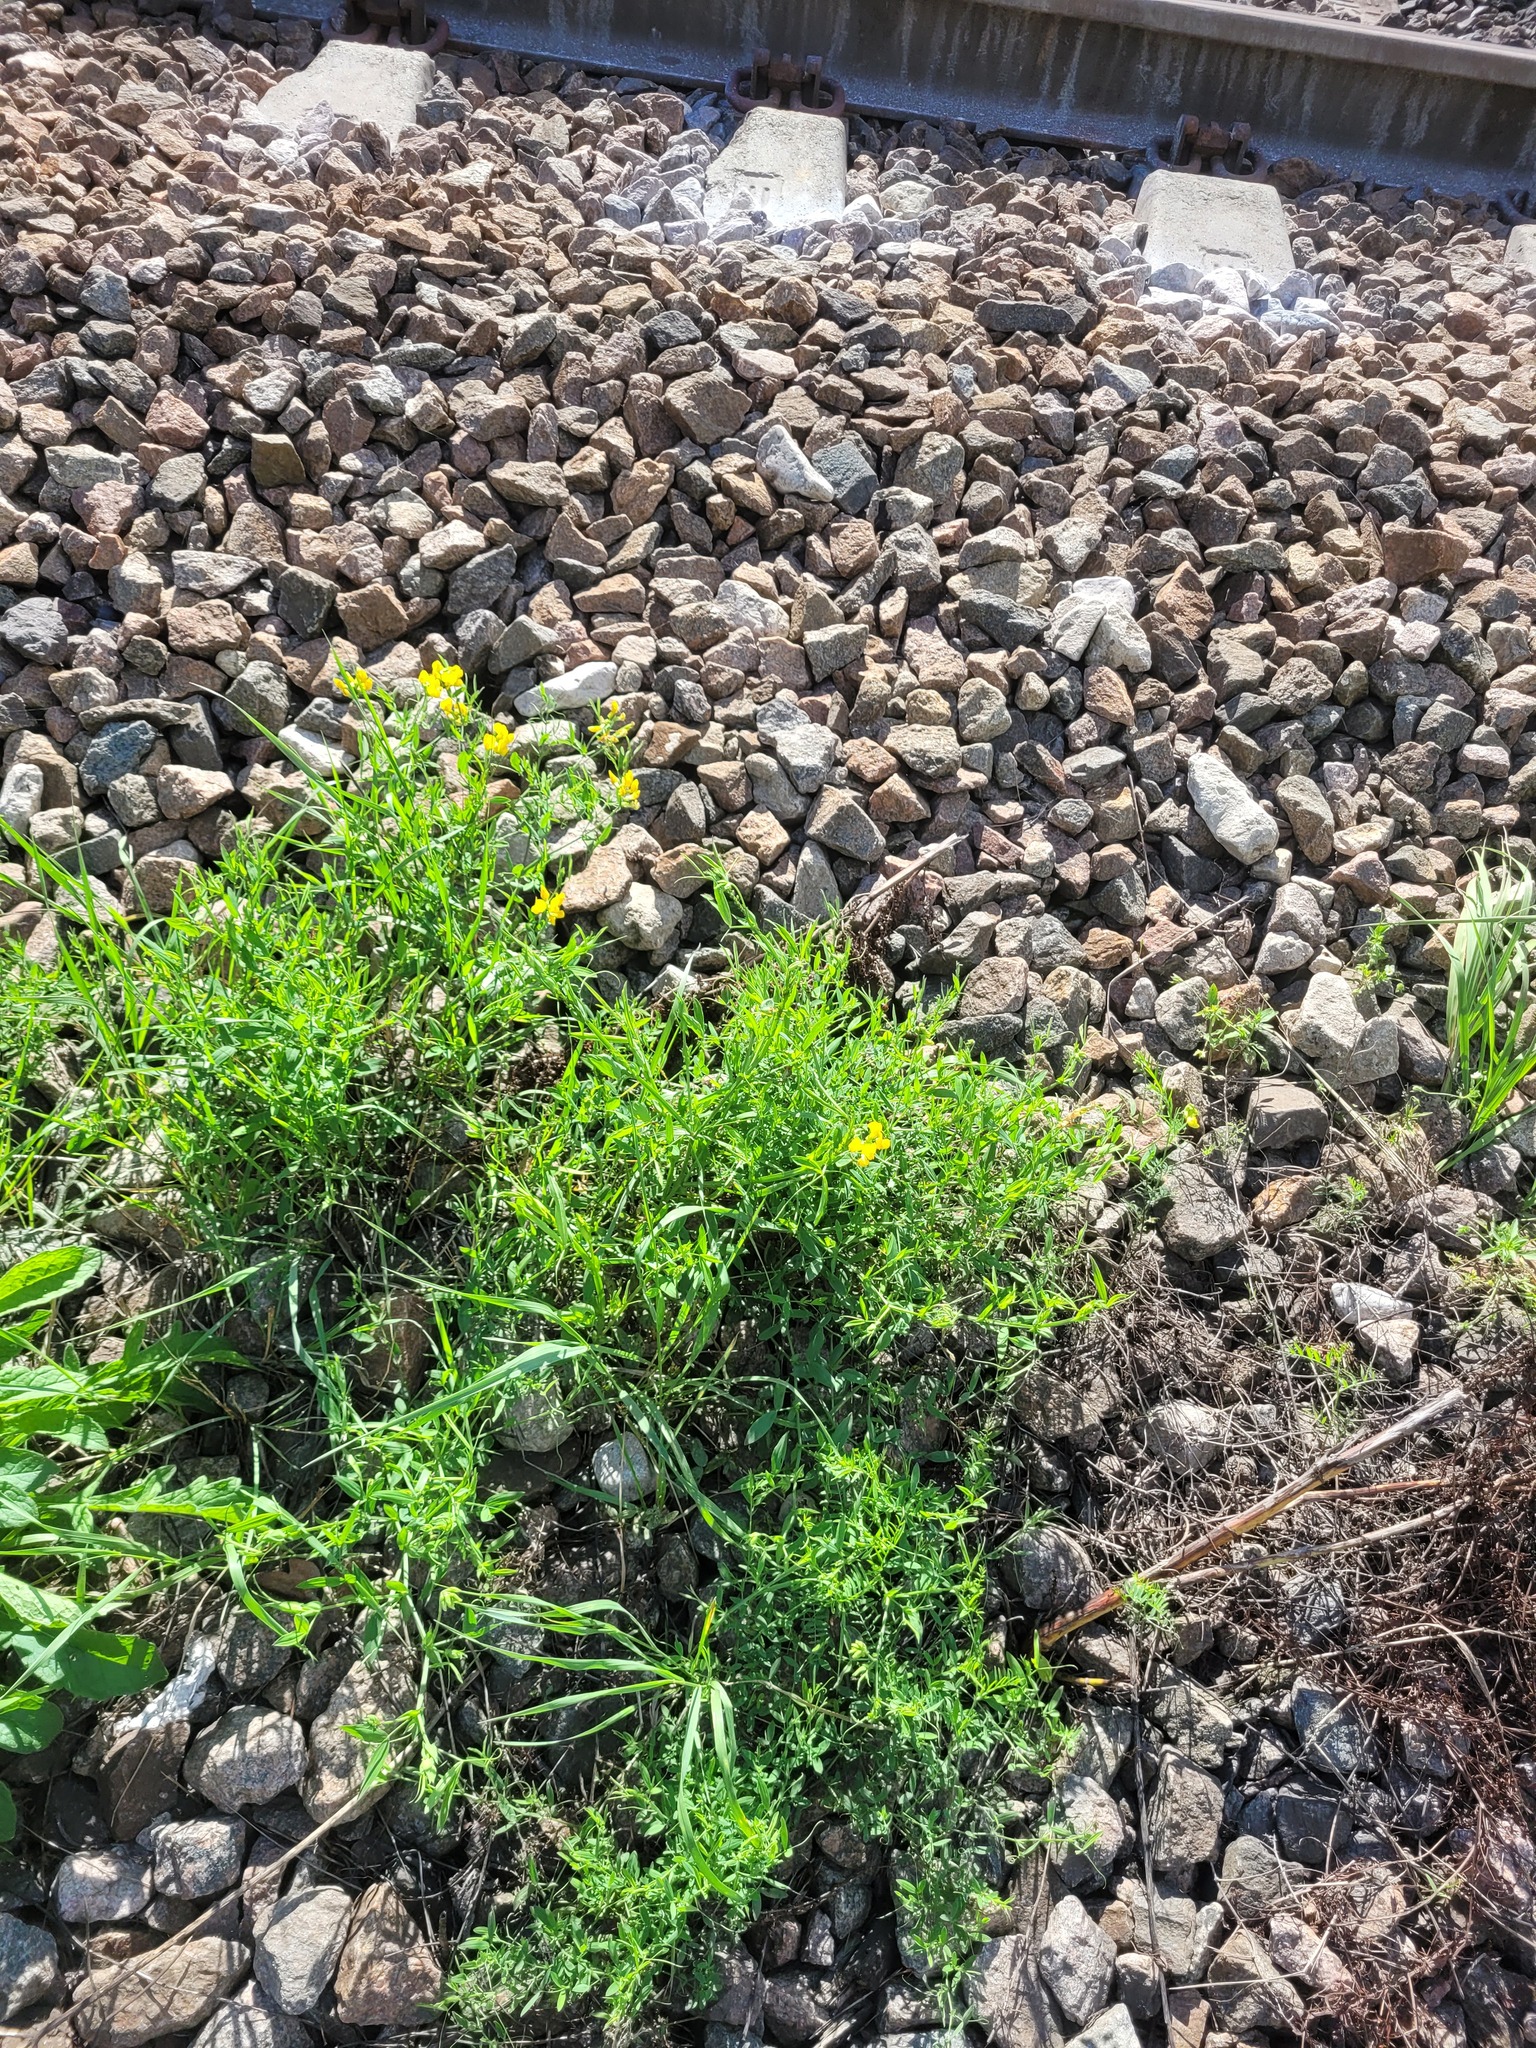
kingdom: Plantae
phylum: Tracheophyta
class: Magnoliopsida
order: Fabales
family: Fabaceae
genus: Lathyrus
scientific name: Lathyrus pratensis
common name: Meadow vetchling
